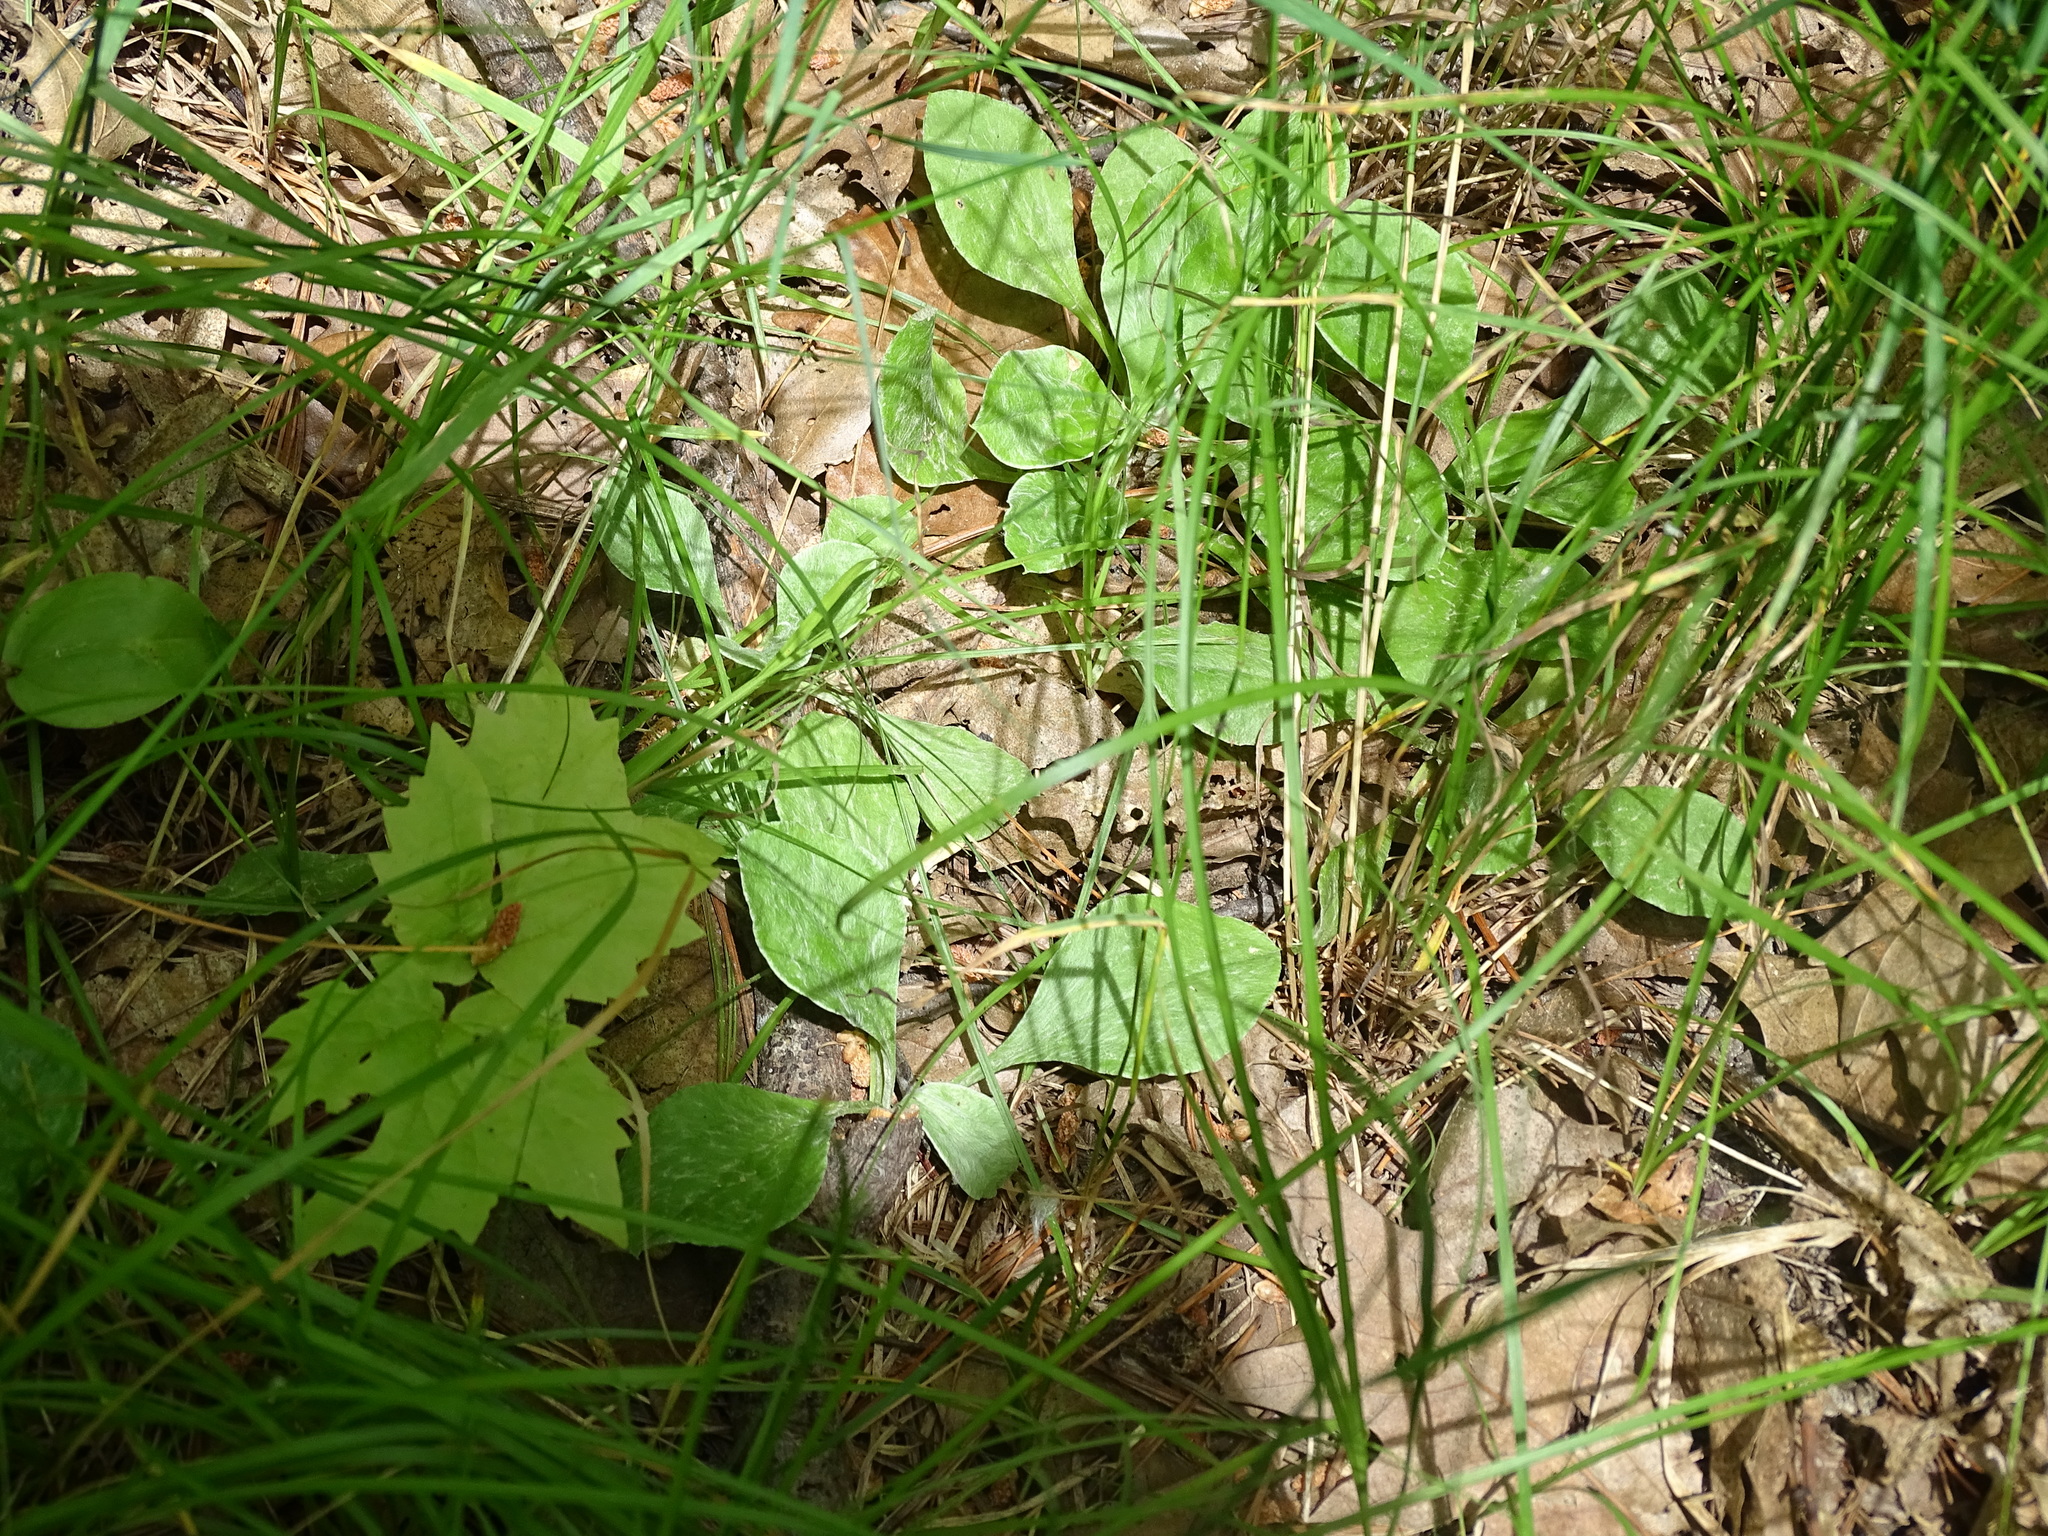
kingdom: Plantae
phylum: Tracheophyta
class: Magnoliopsida
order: Asterales
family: Asteraceae
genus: Antennaria
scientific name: Antennaria parlinii
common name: Parlin's pussytoes
